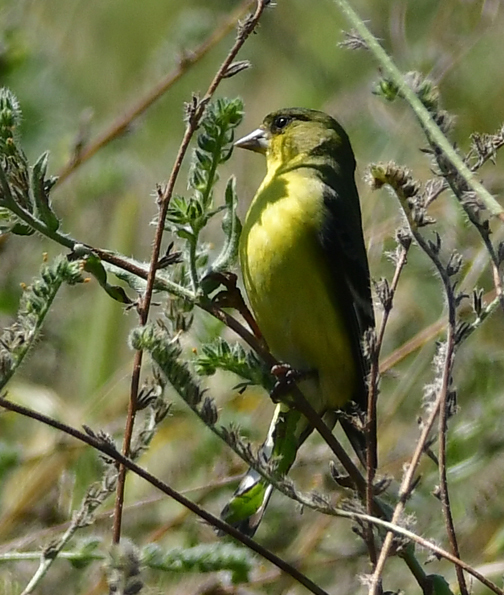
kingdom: Animalia
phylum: Chordata
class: Aves
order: Passeriformes
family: Fringillidae
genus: Spinus
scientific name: Spinus psaltria
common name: Lesser goldfinch
